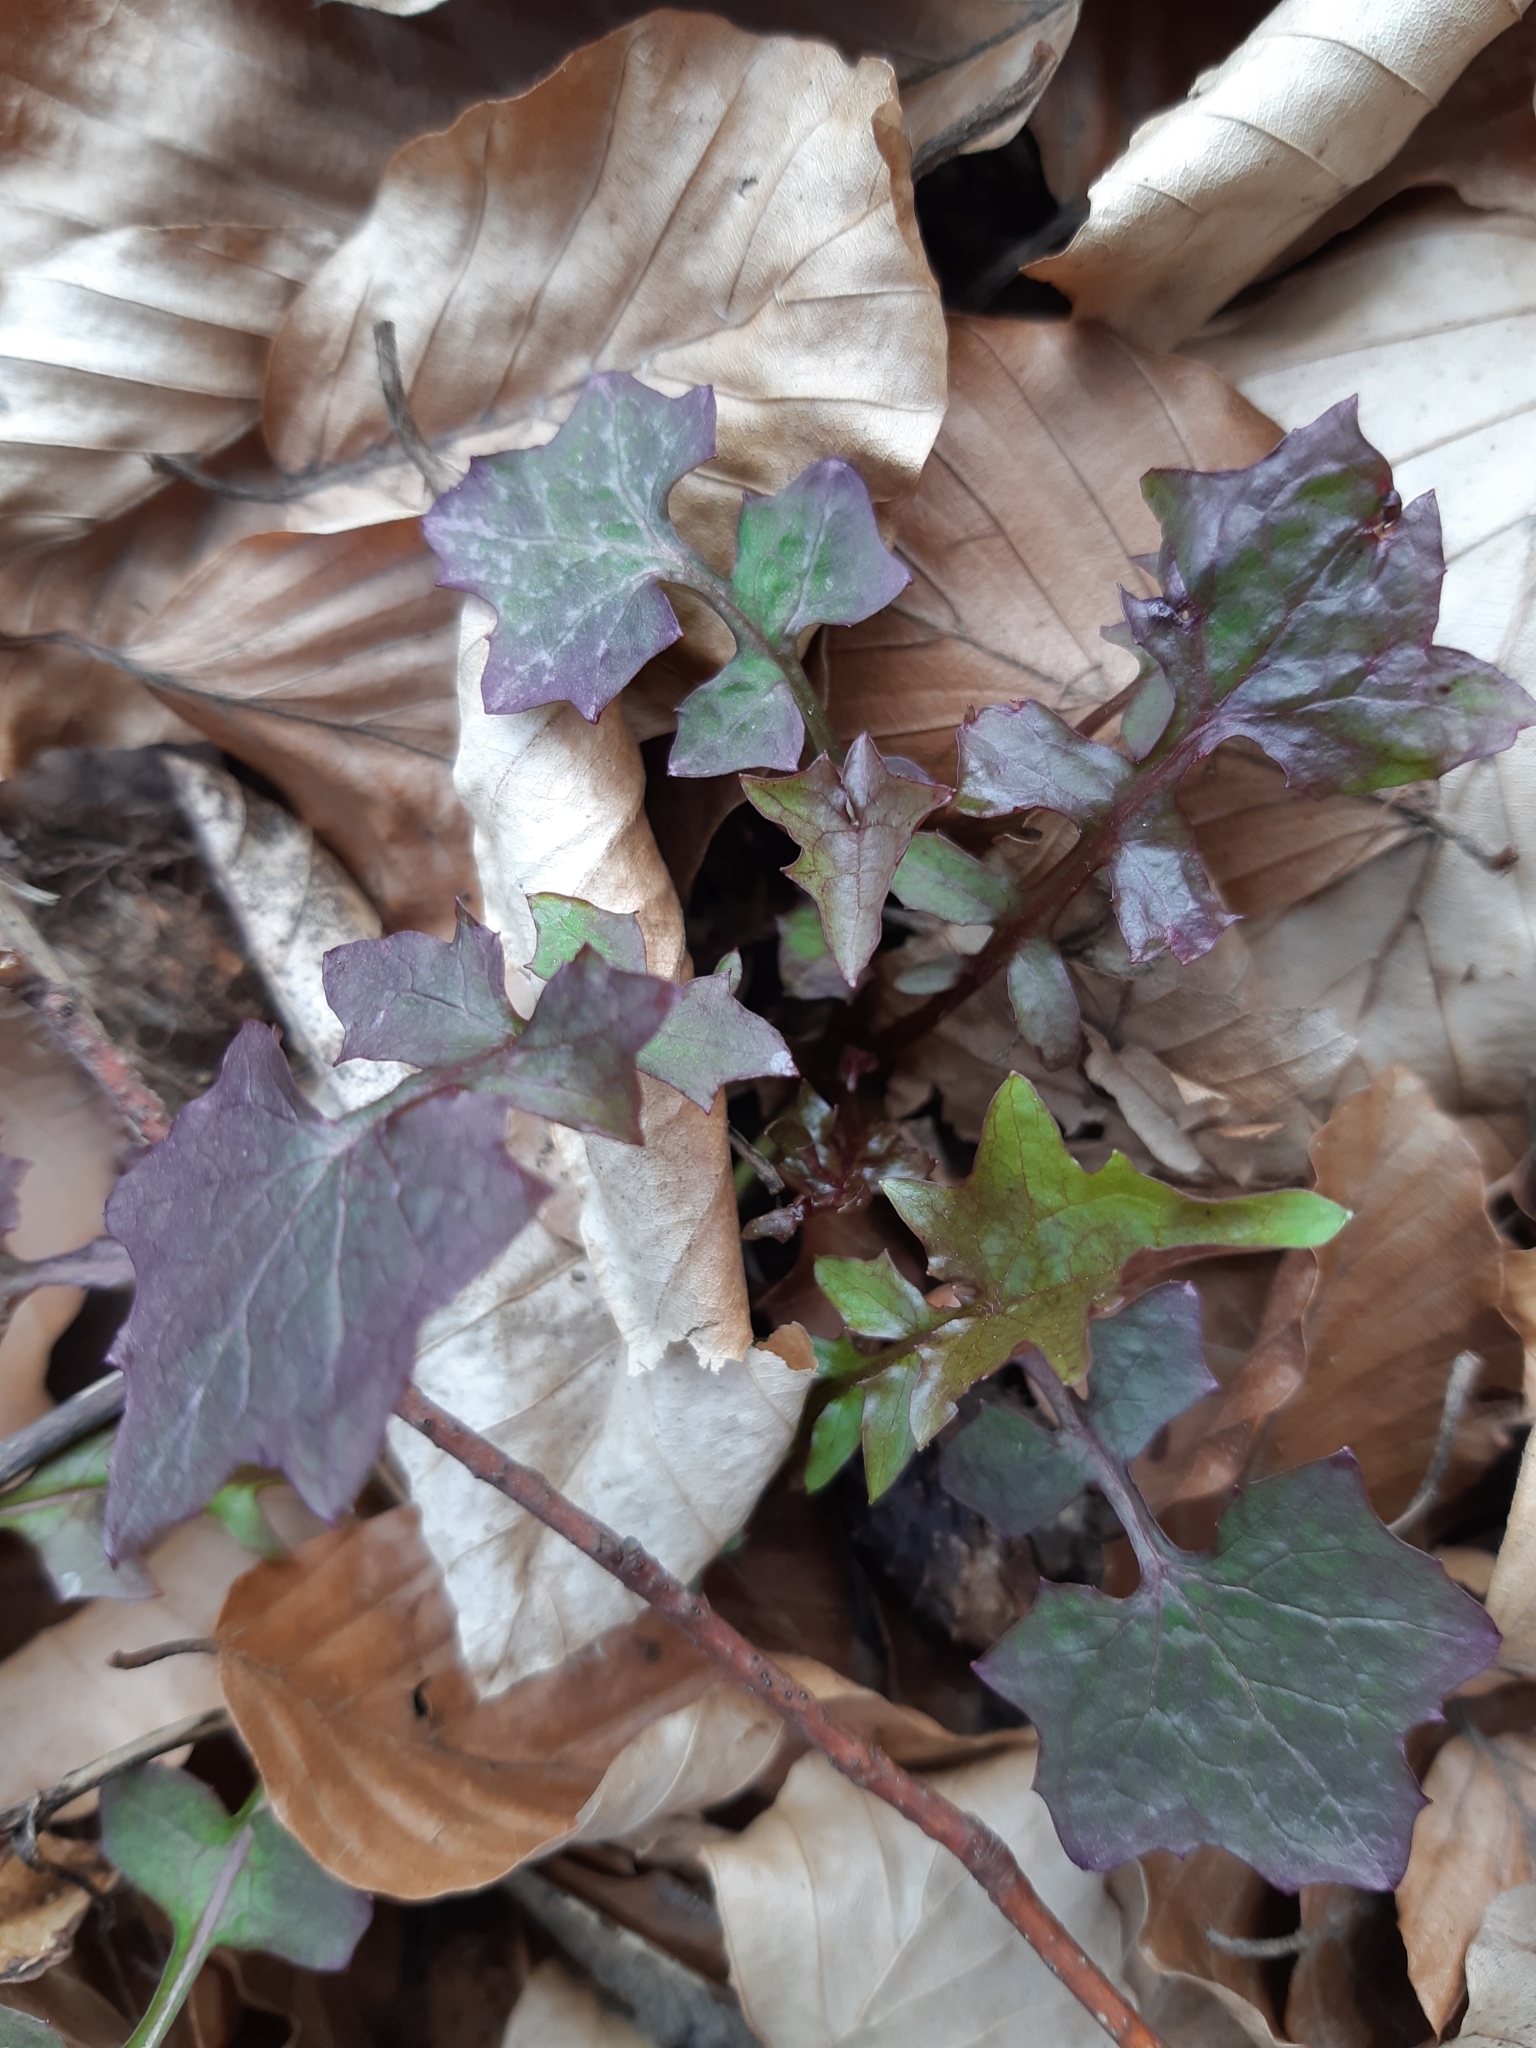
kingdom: Plantae
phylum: Tracheophyta
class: Magnoliopsida
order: Asterales
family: Asteraceae
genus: Mycelis
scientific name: Mycelis muralis
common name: Wall lettuce
